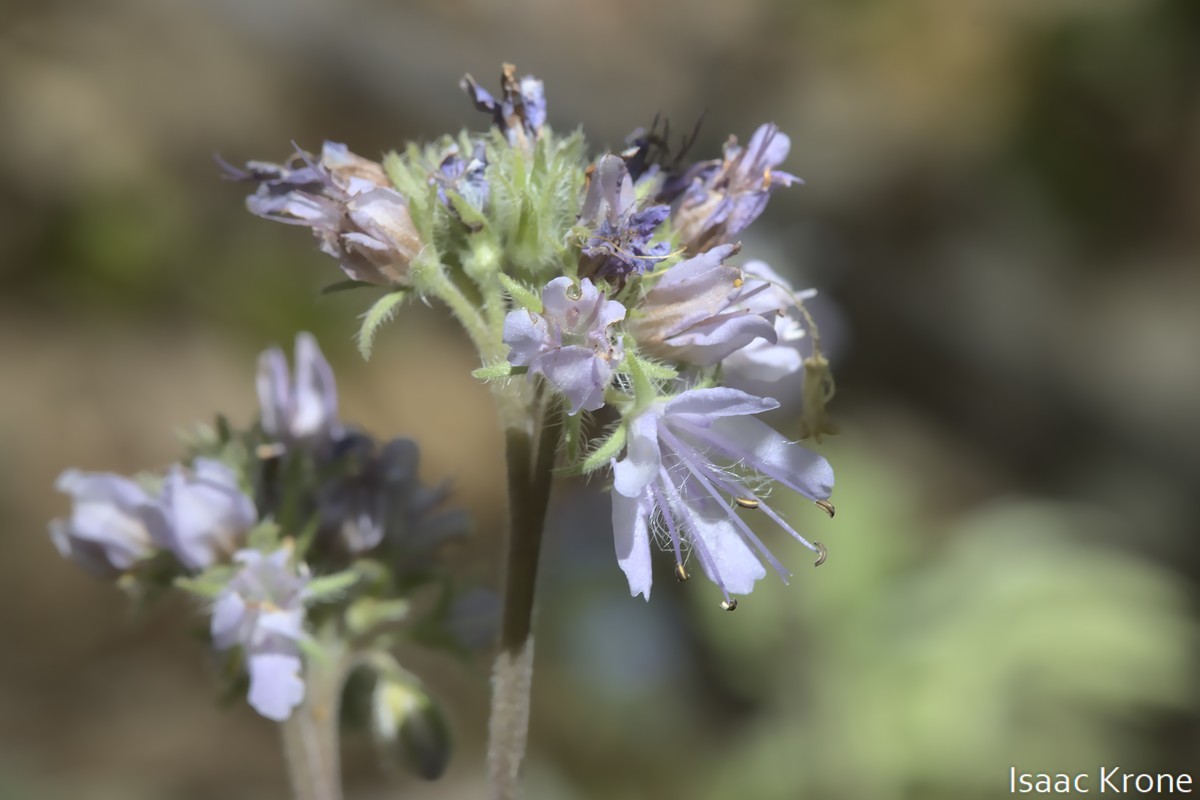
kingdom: Plantae
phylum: Tracheophyta
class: Magnoliopsida
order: Boraginales
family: Hydrophyllaceae
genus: Hydrophyllum
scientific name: Hydrophyllum occidentale
